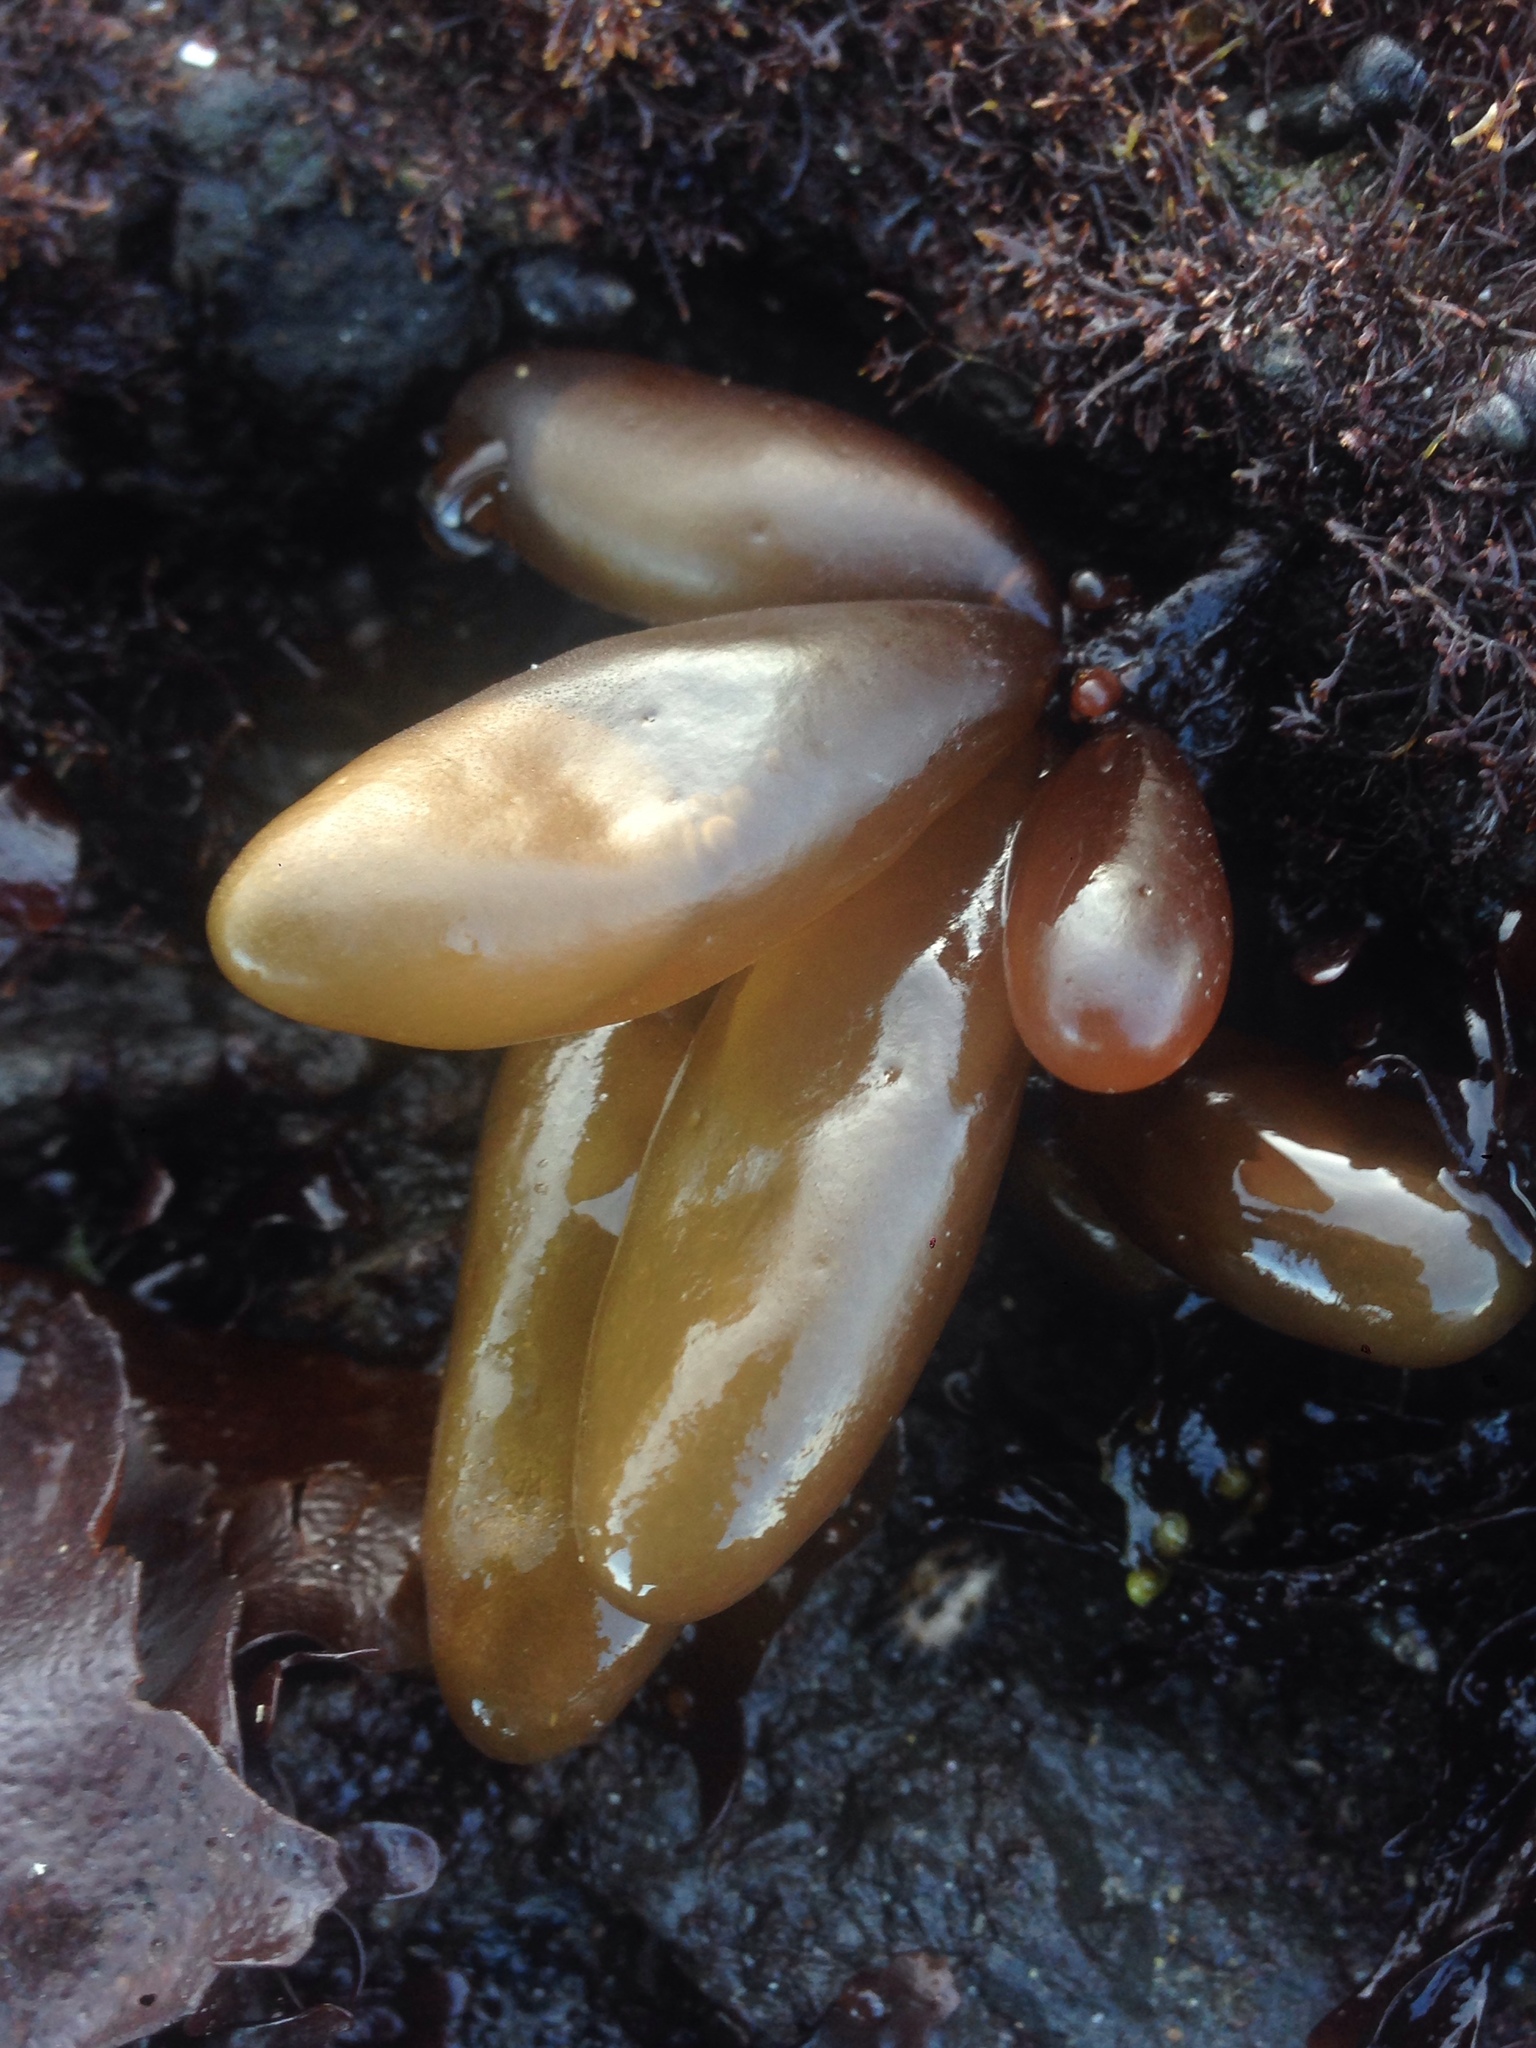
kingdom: Plantae
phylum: Rhodophyta
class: Florideophyceae
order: Palmariales
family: Palmariaceae
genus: Halosaccion
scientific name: Halosaccion glandiforme
